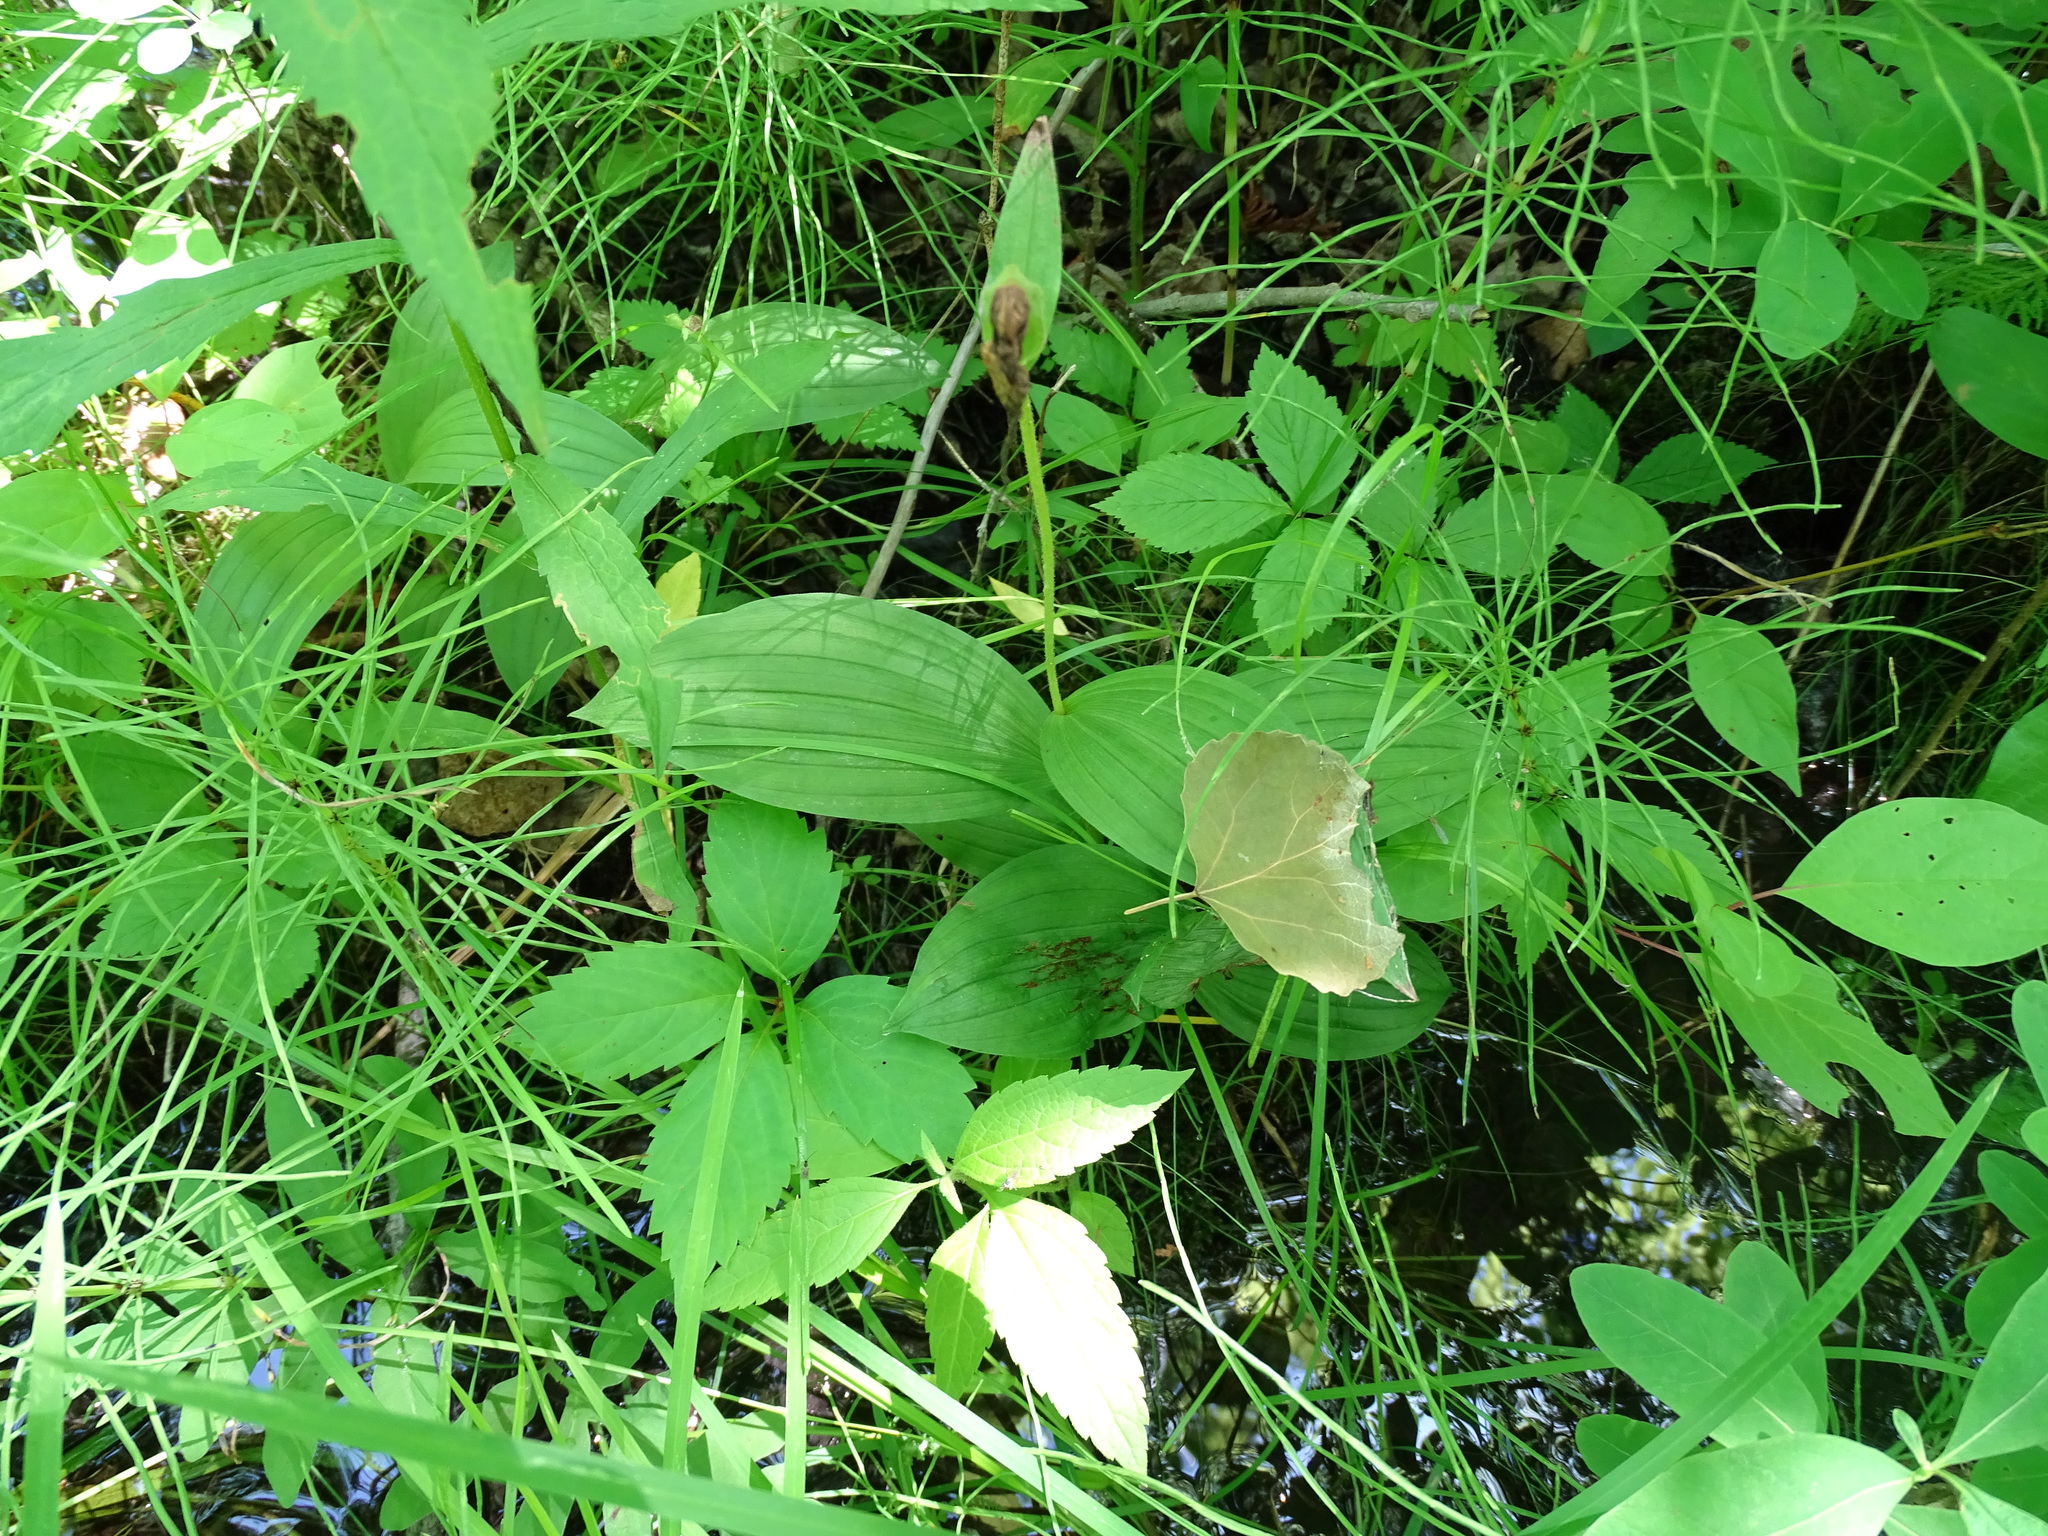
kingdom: Plantae
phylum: Tracheophyta
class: Liliopsida
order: Asparagales
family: Orchidaceae
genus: Cypripedium
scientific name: Cypripedium parviflorum
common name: American yellow lady's-slipper
